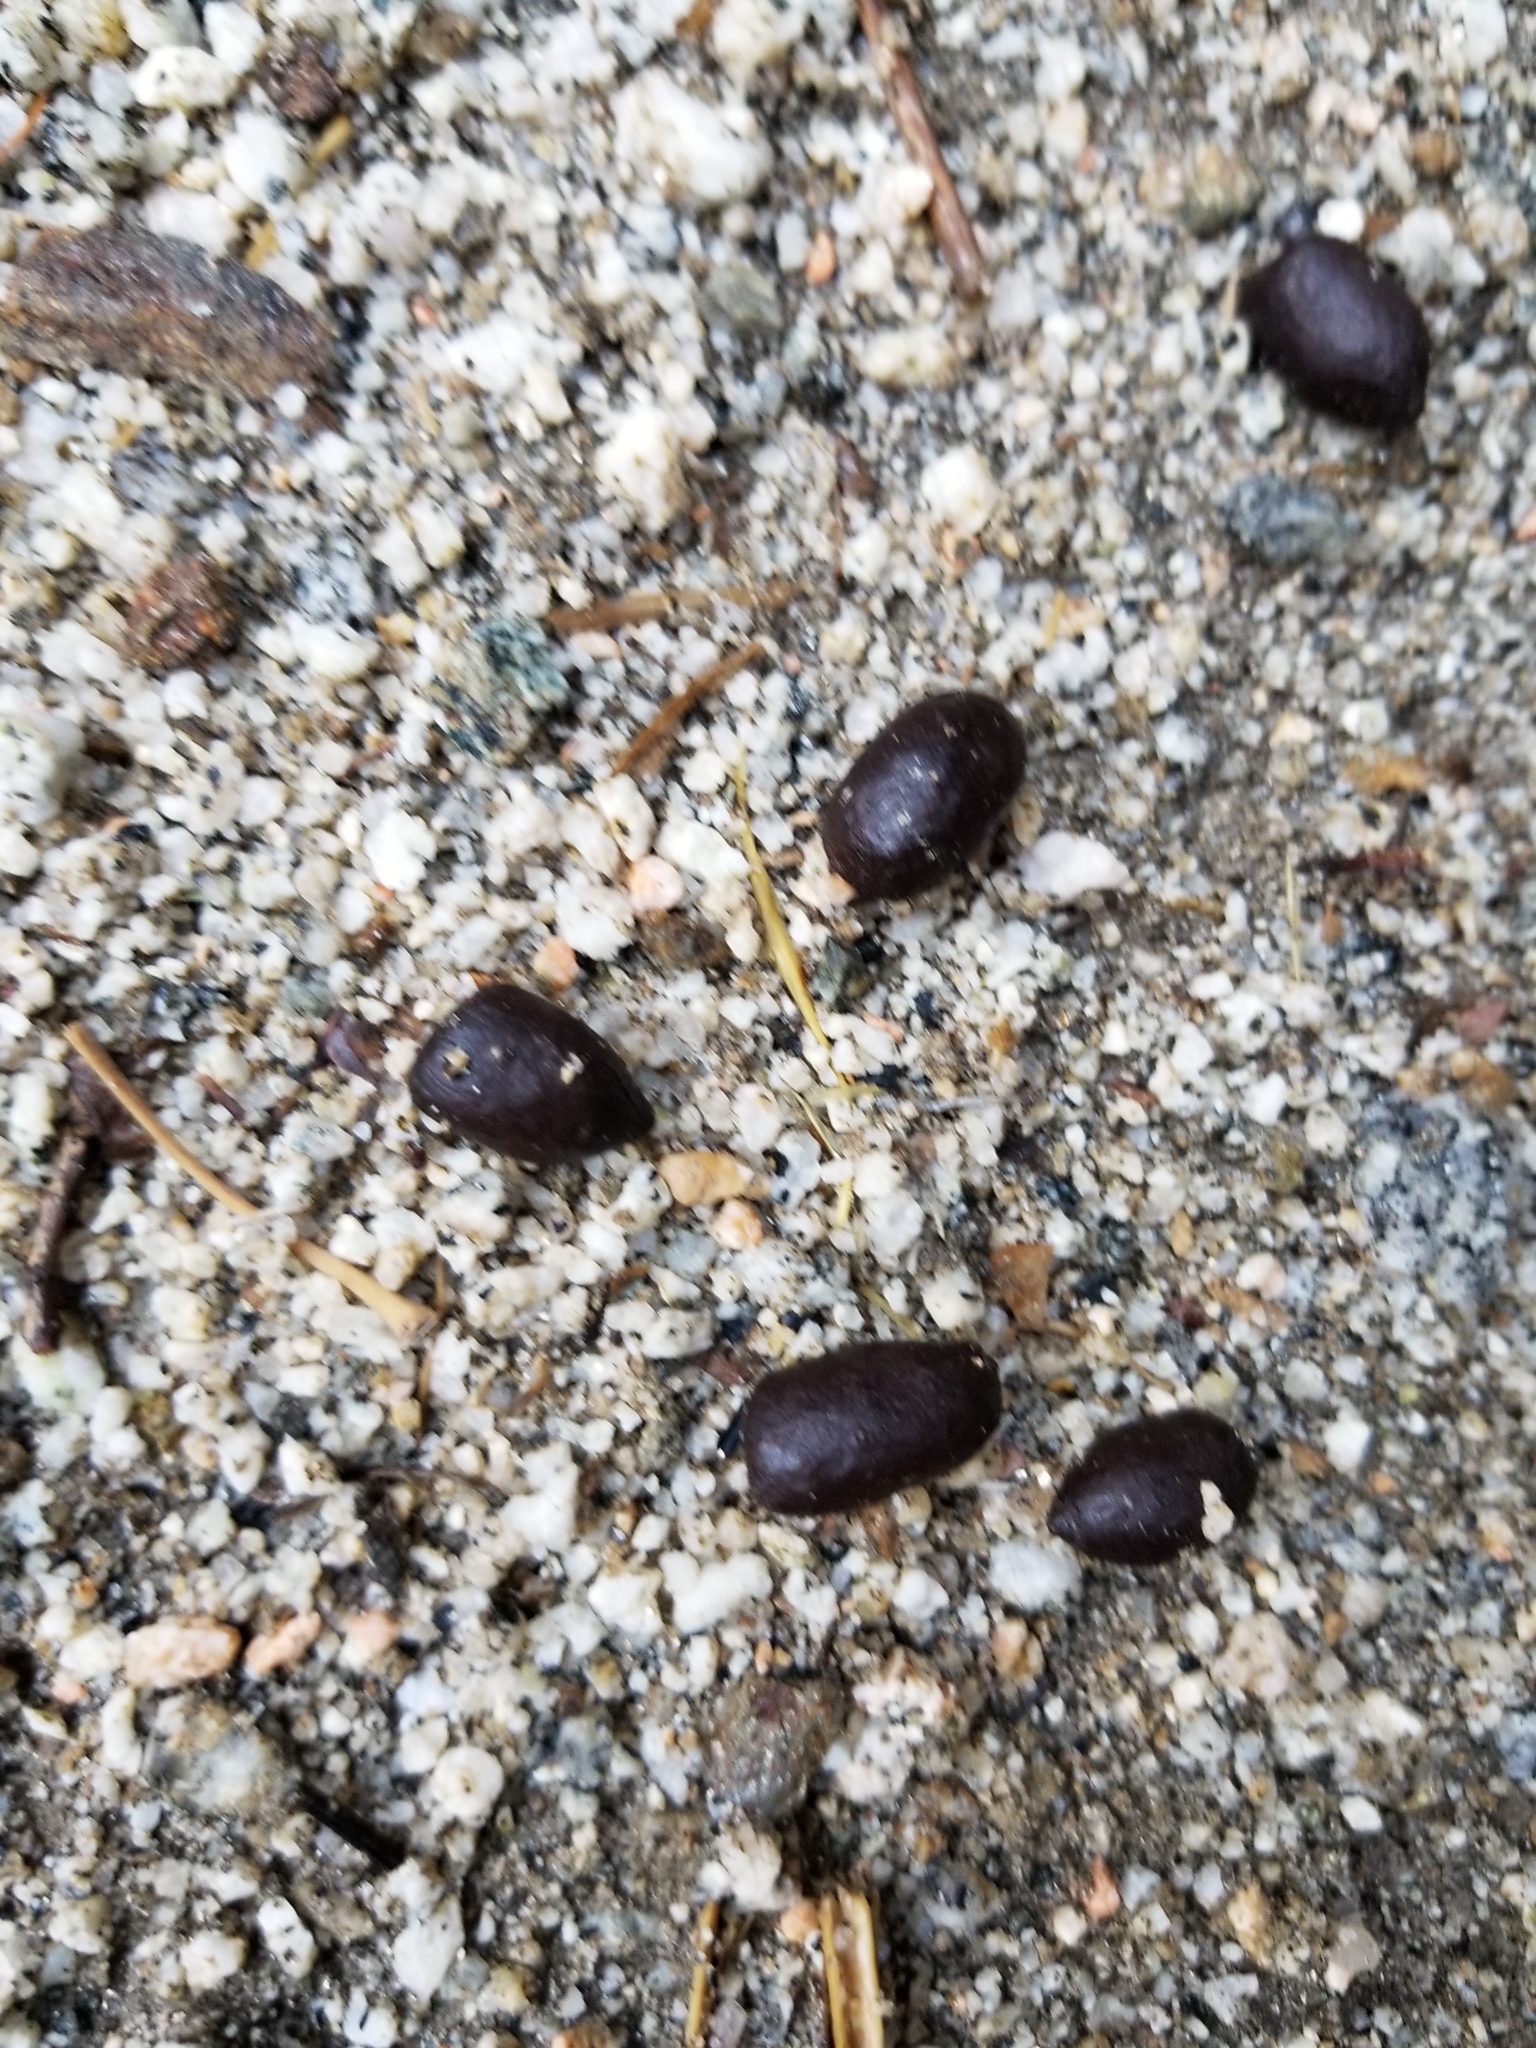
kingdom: Animalia
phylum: Chordata
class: Mammalia
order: Artiodactyla
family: Bovidae
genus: Ovis
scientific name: Ovis canadensis
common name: Bighorn sheep
